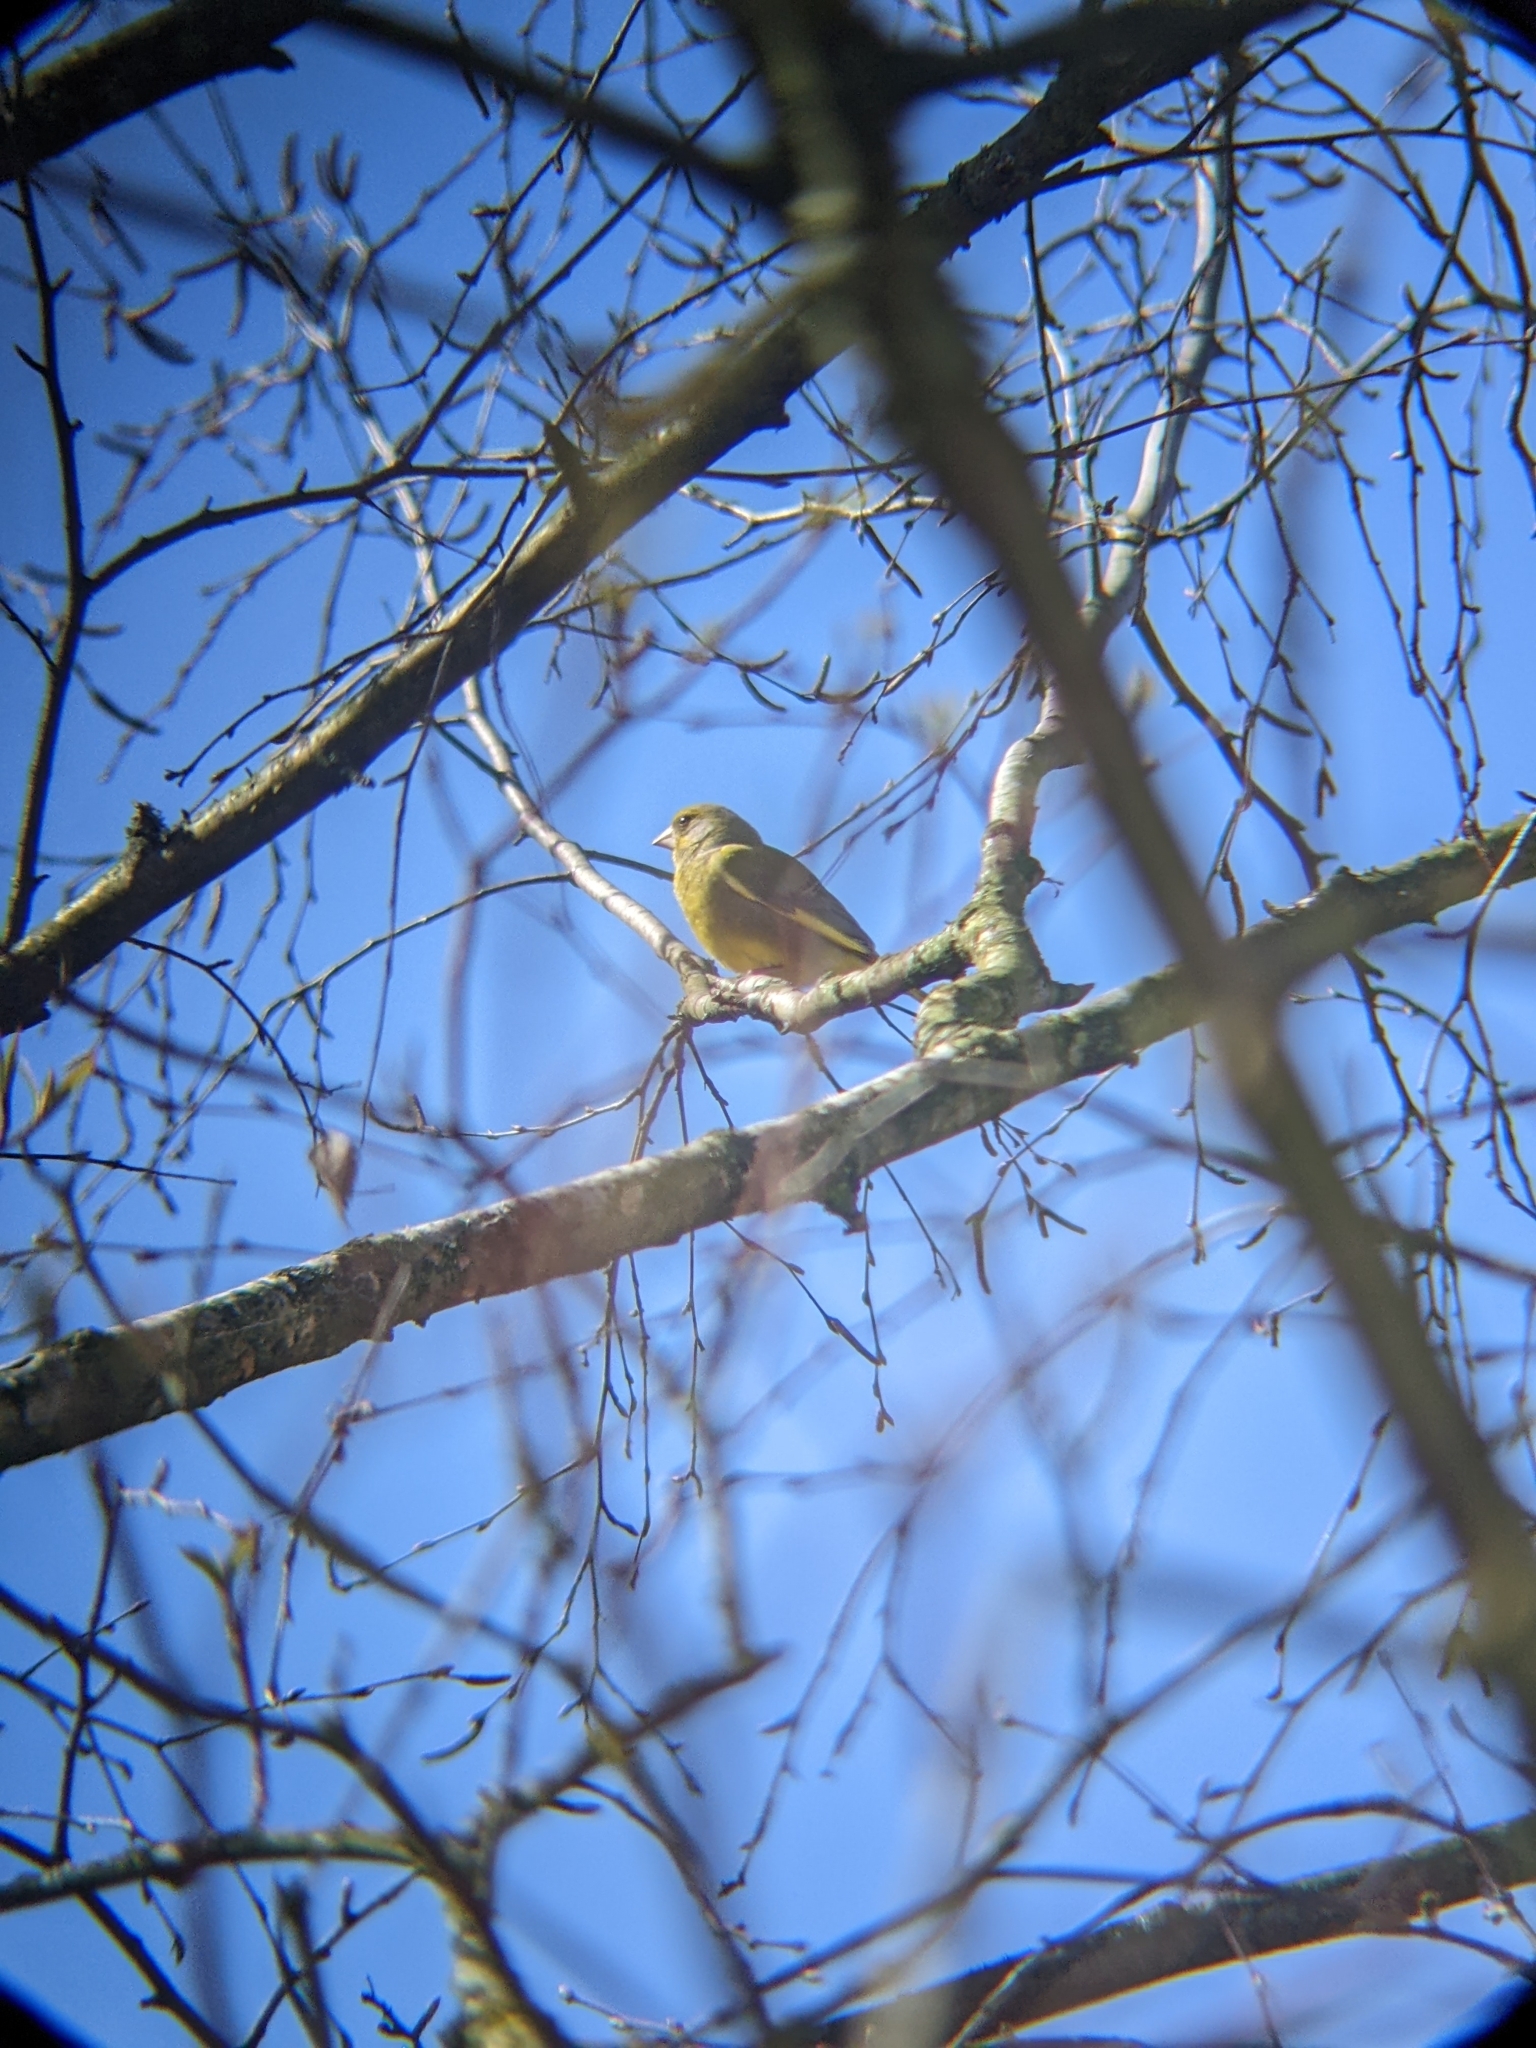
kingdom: Plantae
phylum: Tracheophyta
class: Liliopsida
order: Poales
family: Poaceae
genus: Chloris
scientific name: Chloris chloris
